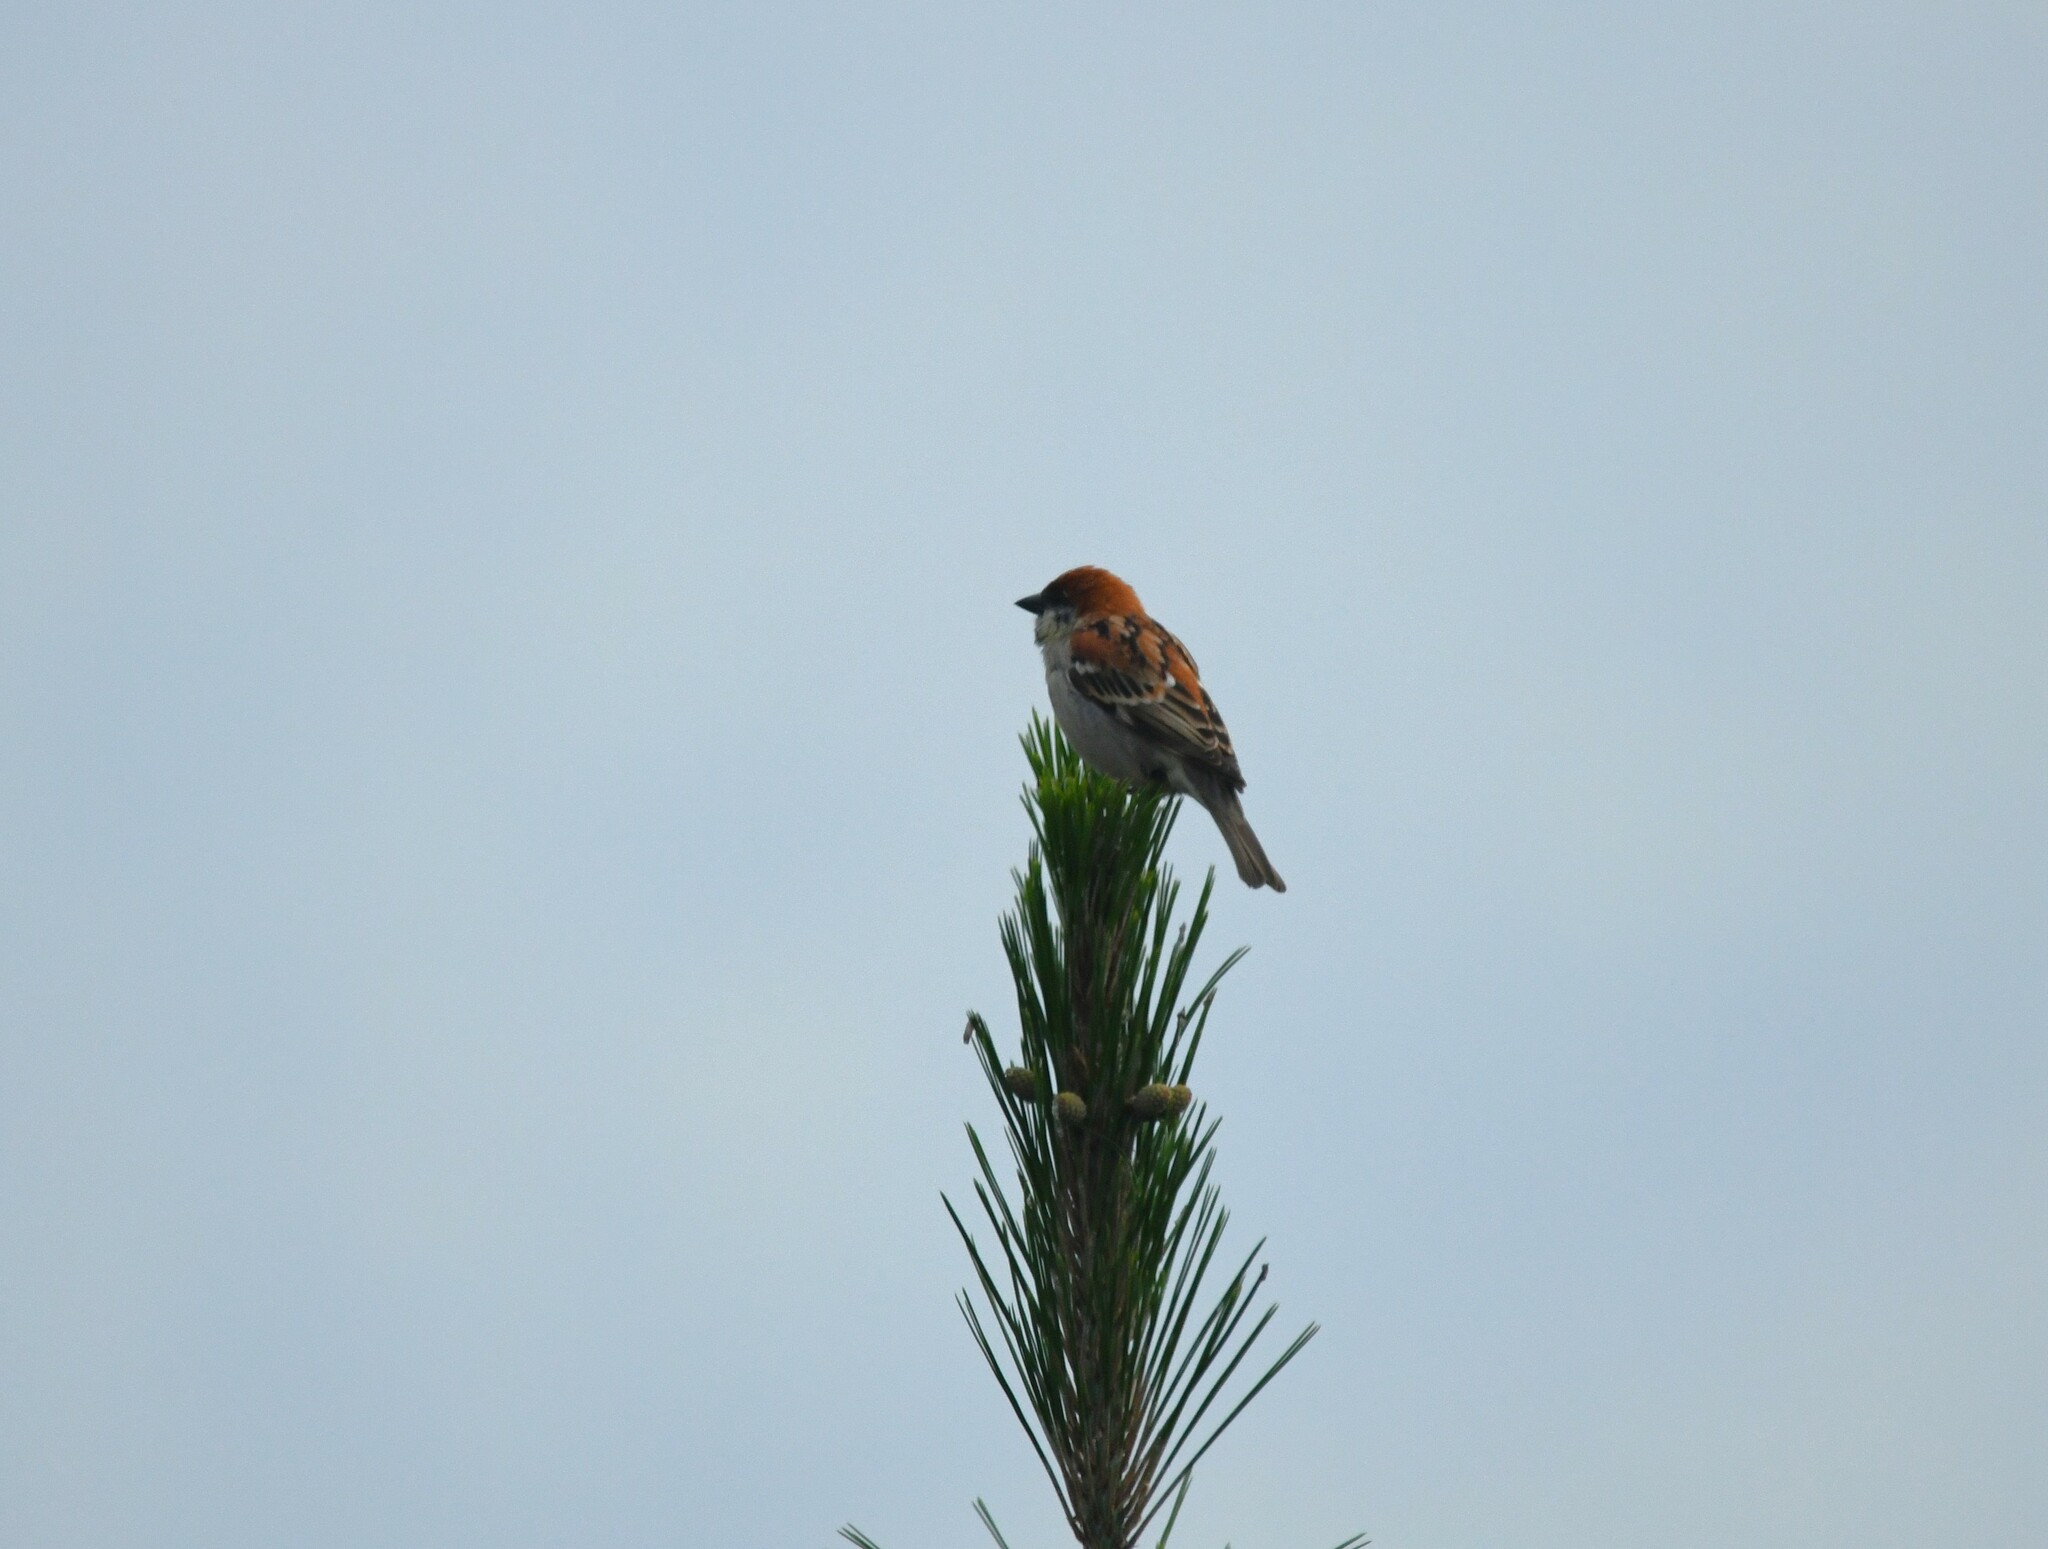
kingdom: Animalia
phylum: Chordata
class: Aves
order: Passeriformes
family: Passeridae
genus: Passer
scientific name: Passer cinnamomeus
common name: Russet sparrow
